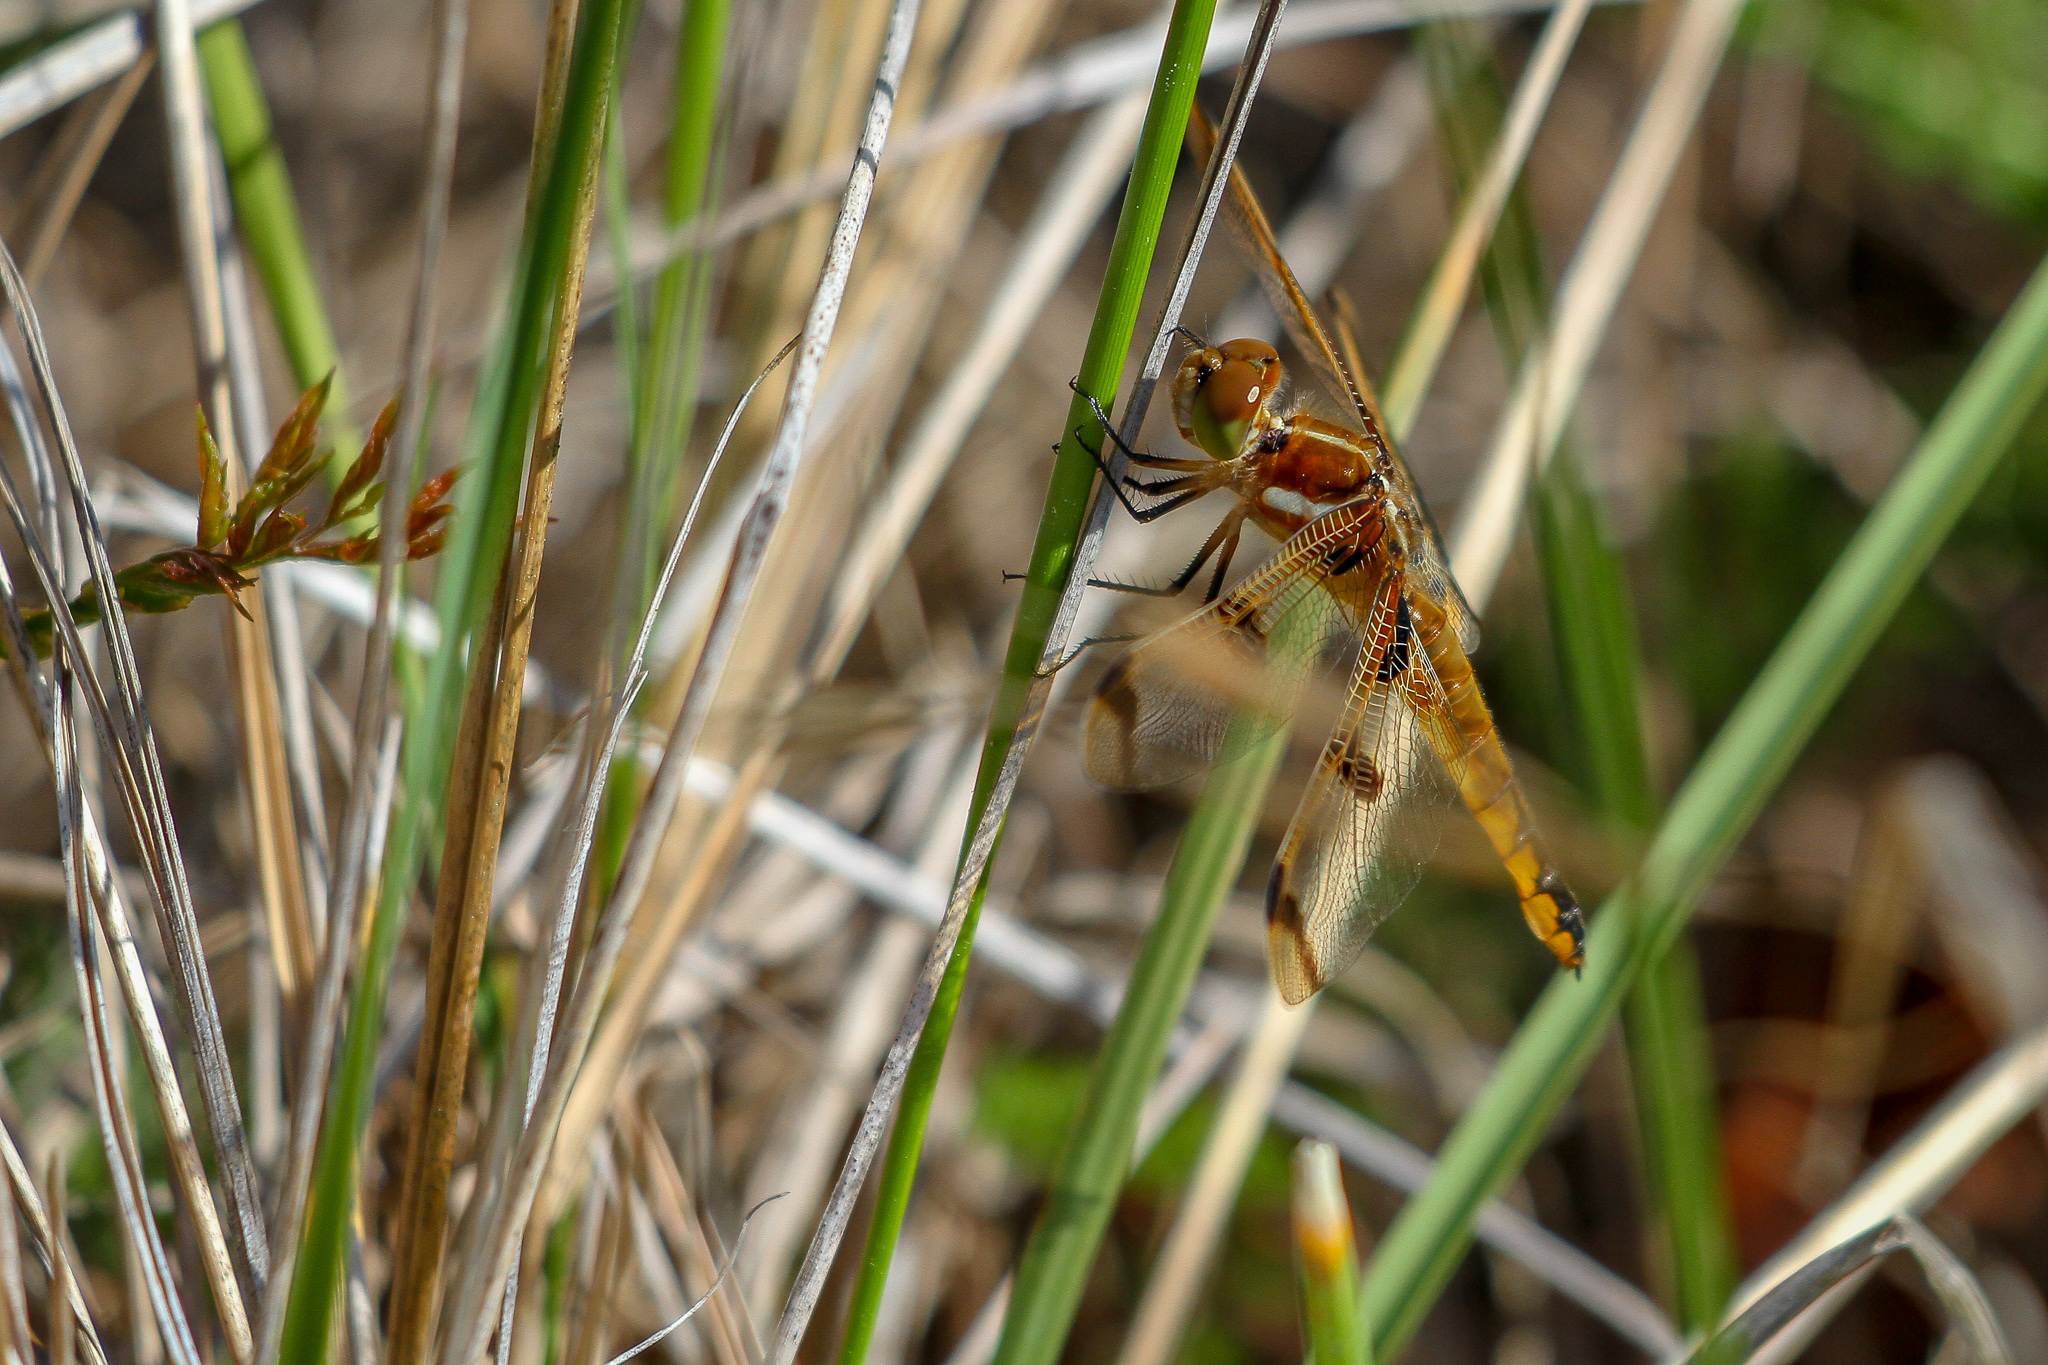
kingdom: Animalia
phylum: Arthropoda
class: Insecta
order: Odonata
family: Libellulidae
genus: Libellula
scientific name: Libellula semifasciata
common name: Painted skimmer
